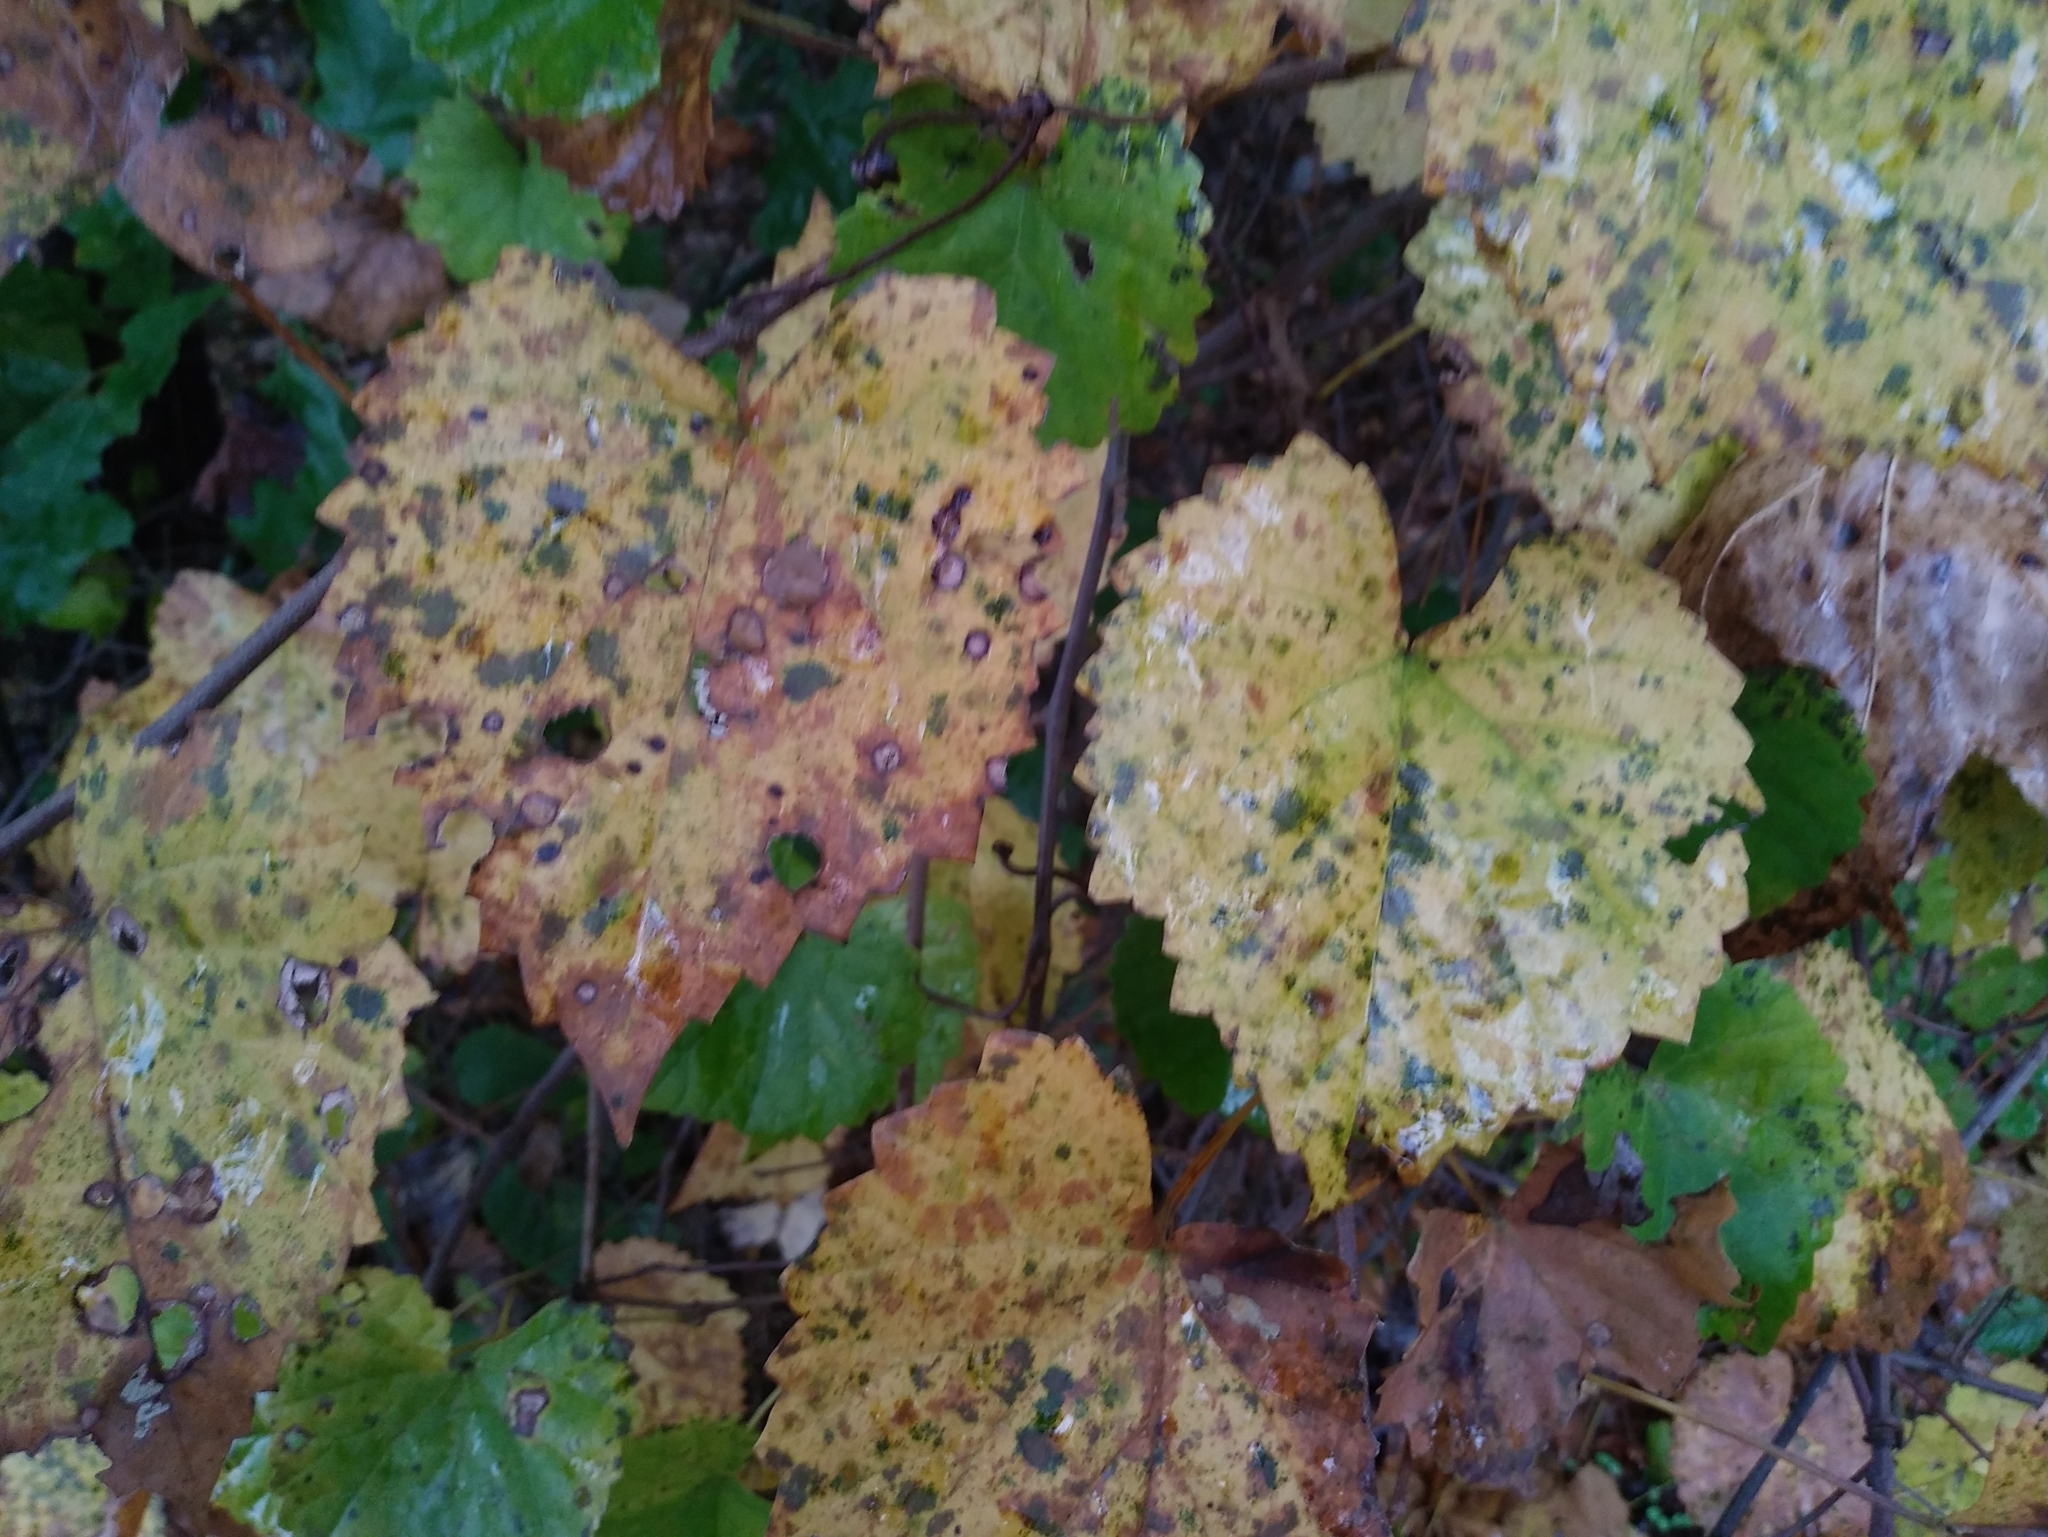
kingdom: Plantae
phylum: Tracheophyta
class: Magnoliopsida
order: Vitales
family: Vitaceae
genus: Vitis
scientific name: Vitis rotundifolia
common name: Muscadine grape
